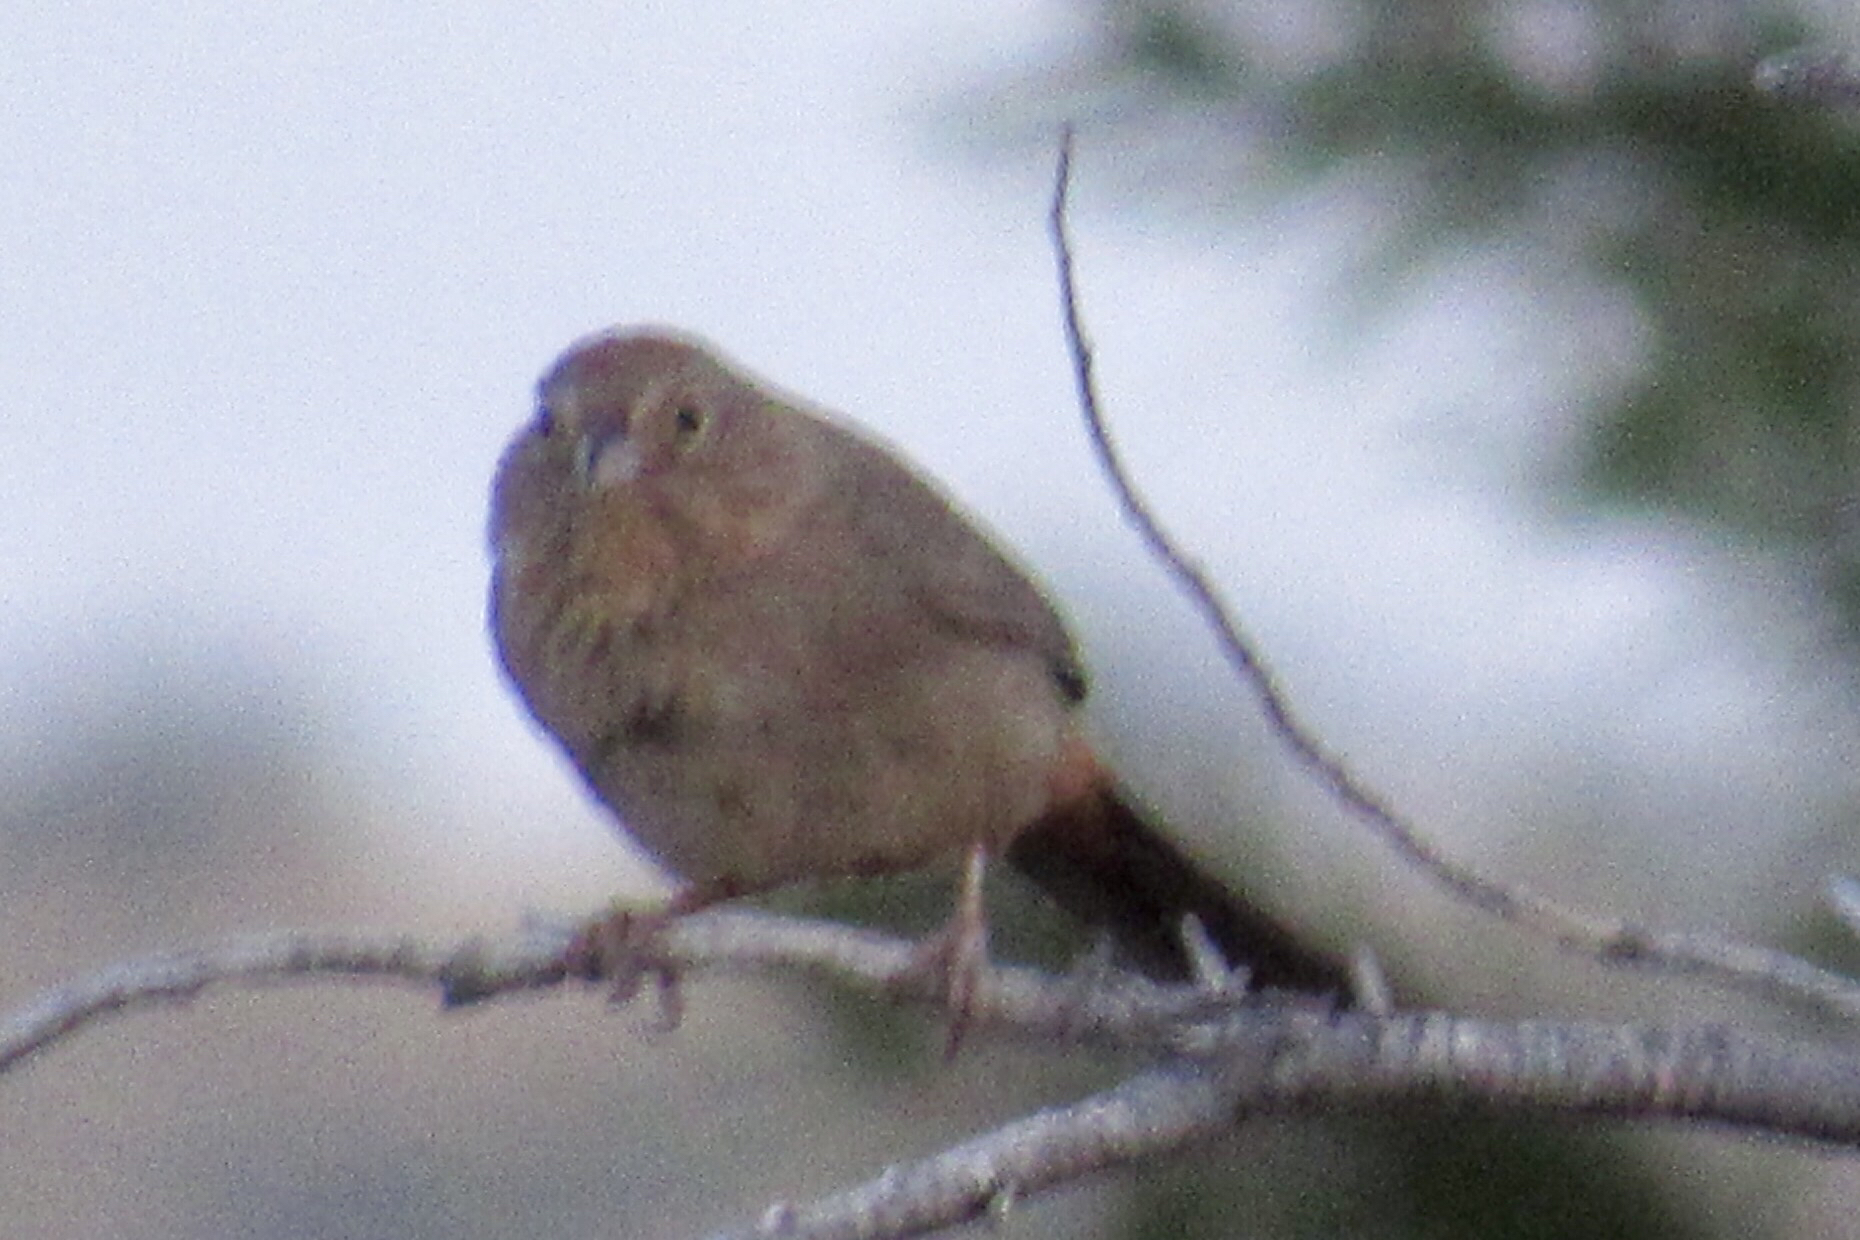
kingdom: Animalia
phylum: Chordata
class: Aves
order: Passeriformes
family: Passerellidae
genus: Melozone
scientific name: Melozone fusca
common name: Canyon towhee
